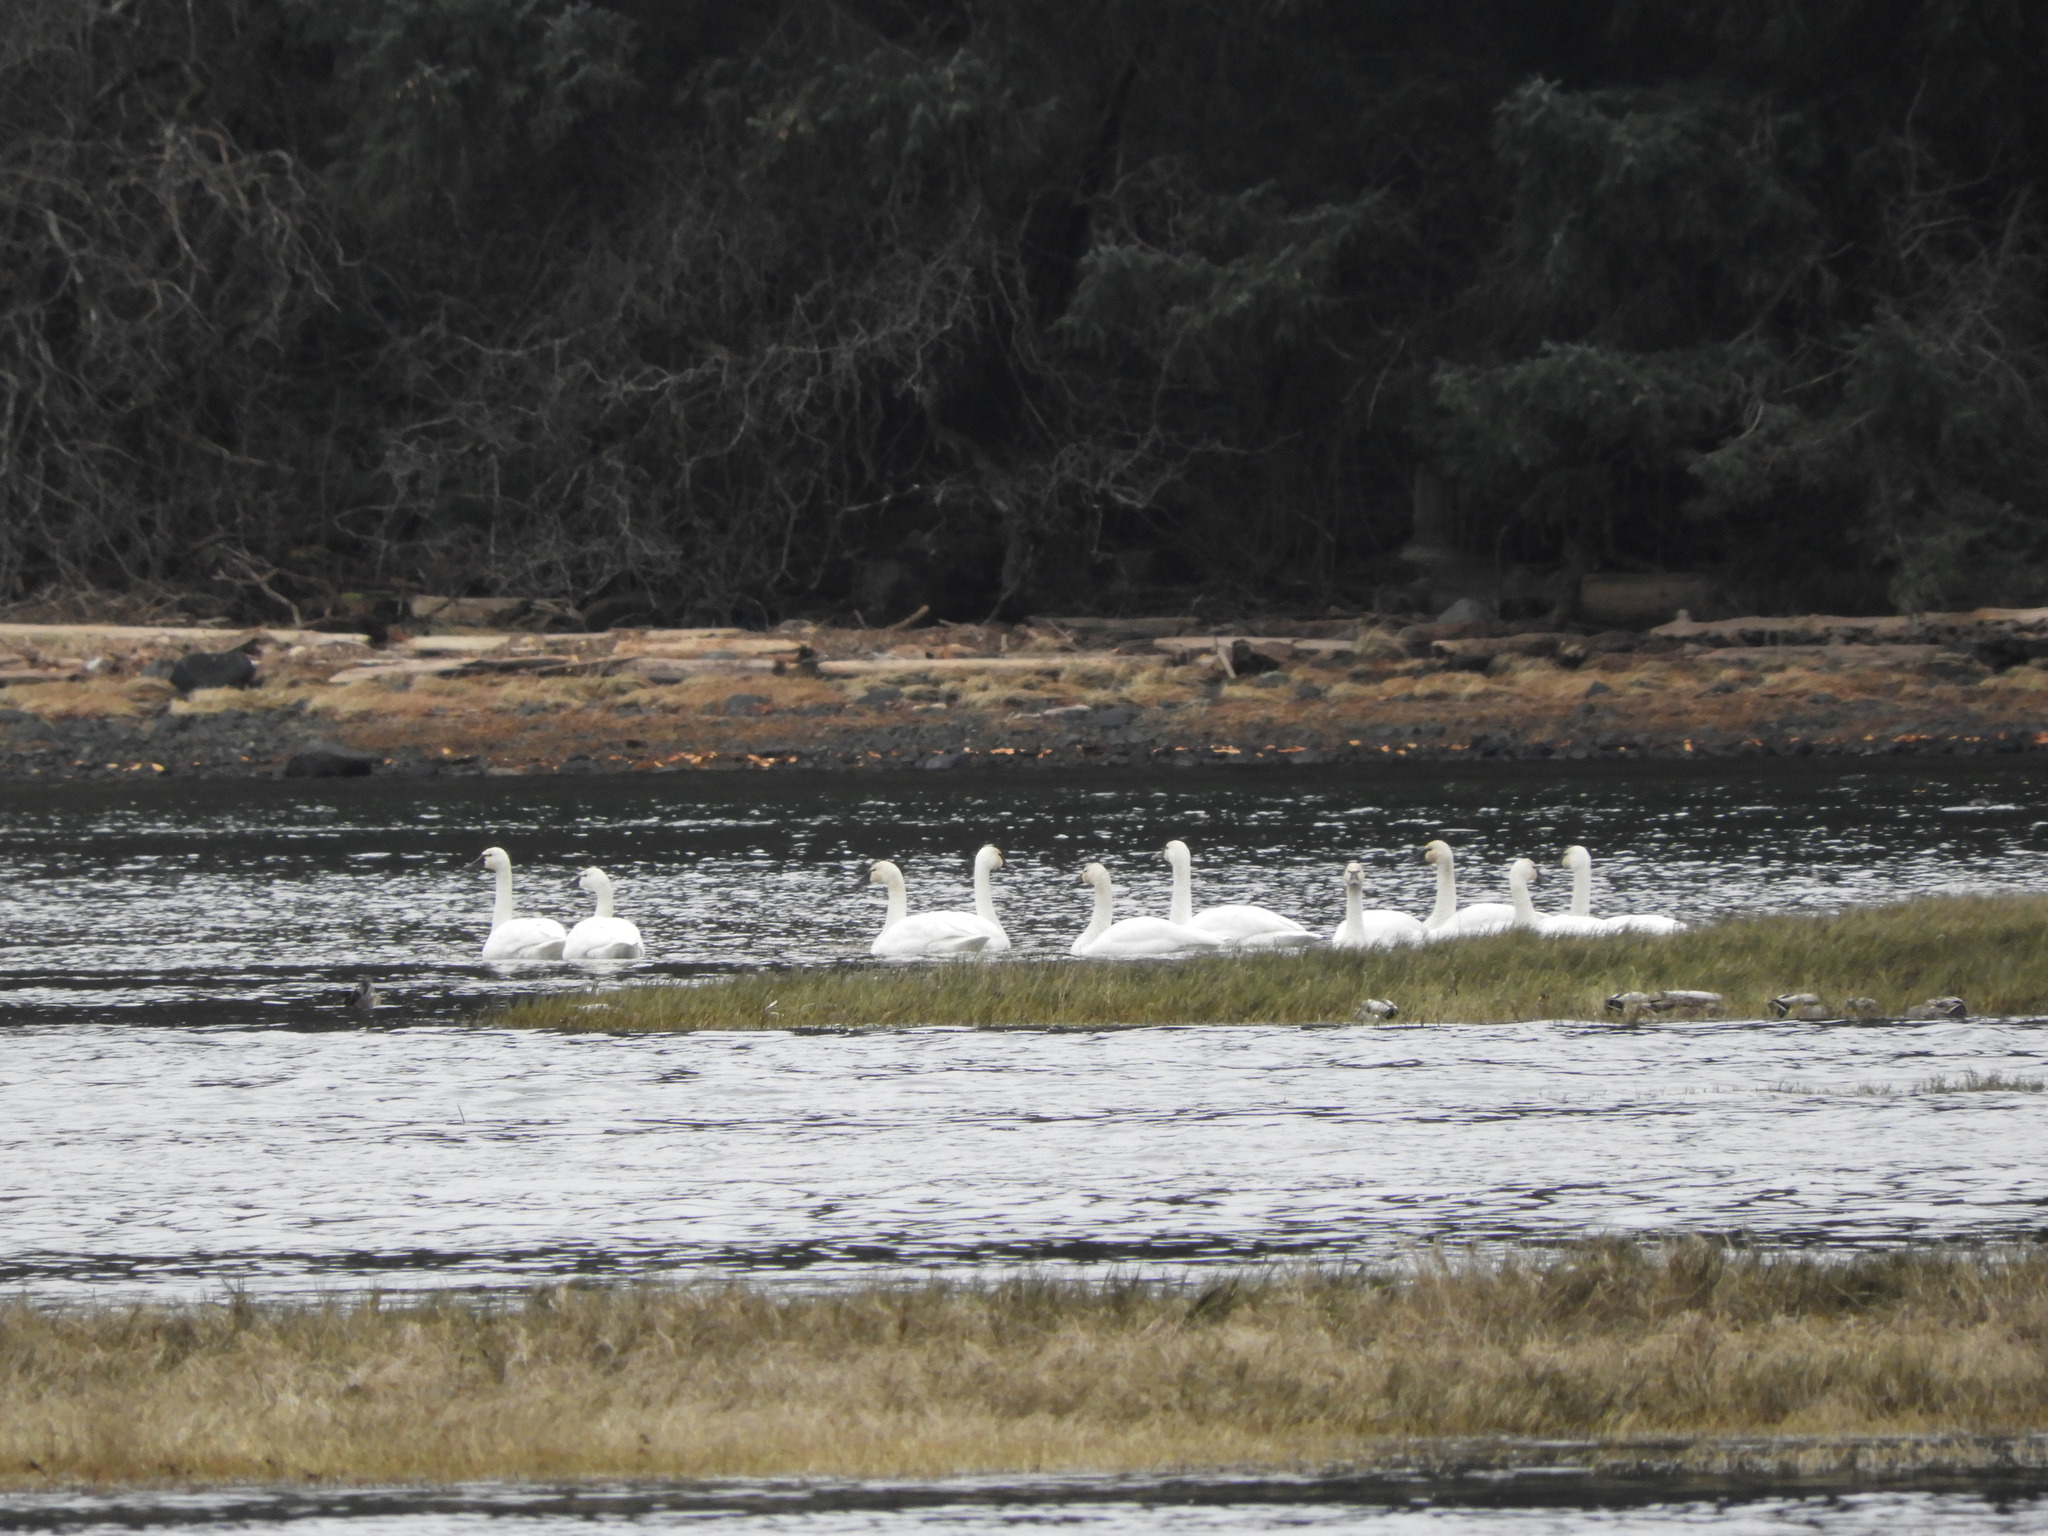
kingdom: Animalia
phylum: Chordata
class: Aves
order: Anseriformes
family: Anatidae
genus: Cygnus
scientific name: Cygnus columbianus
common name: Tundra swan
